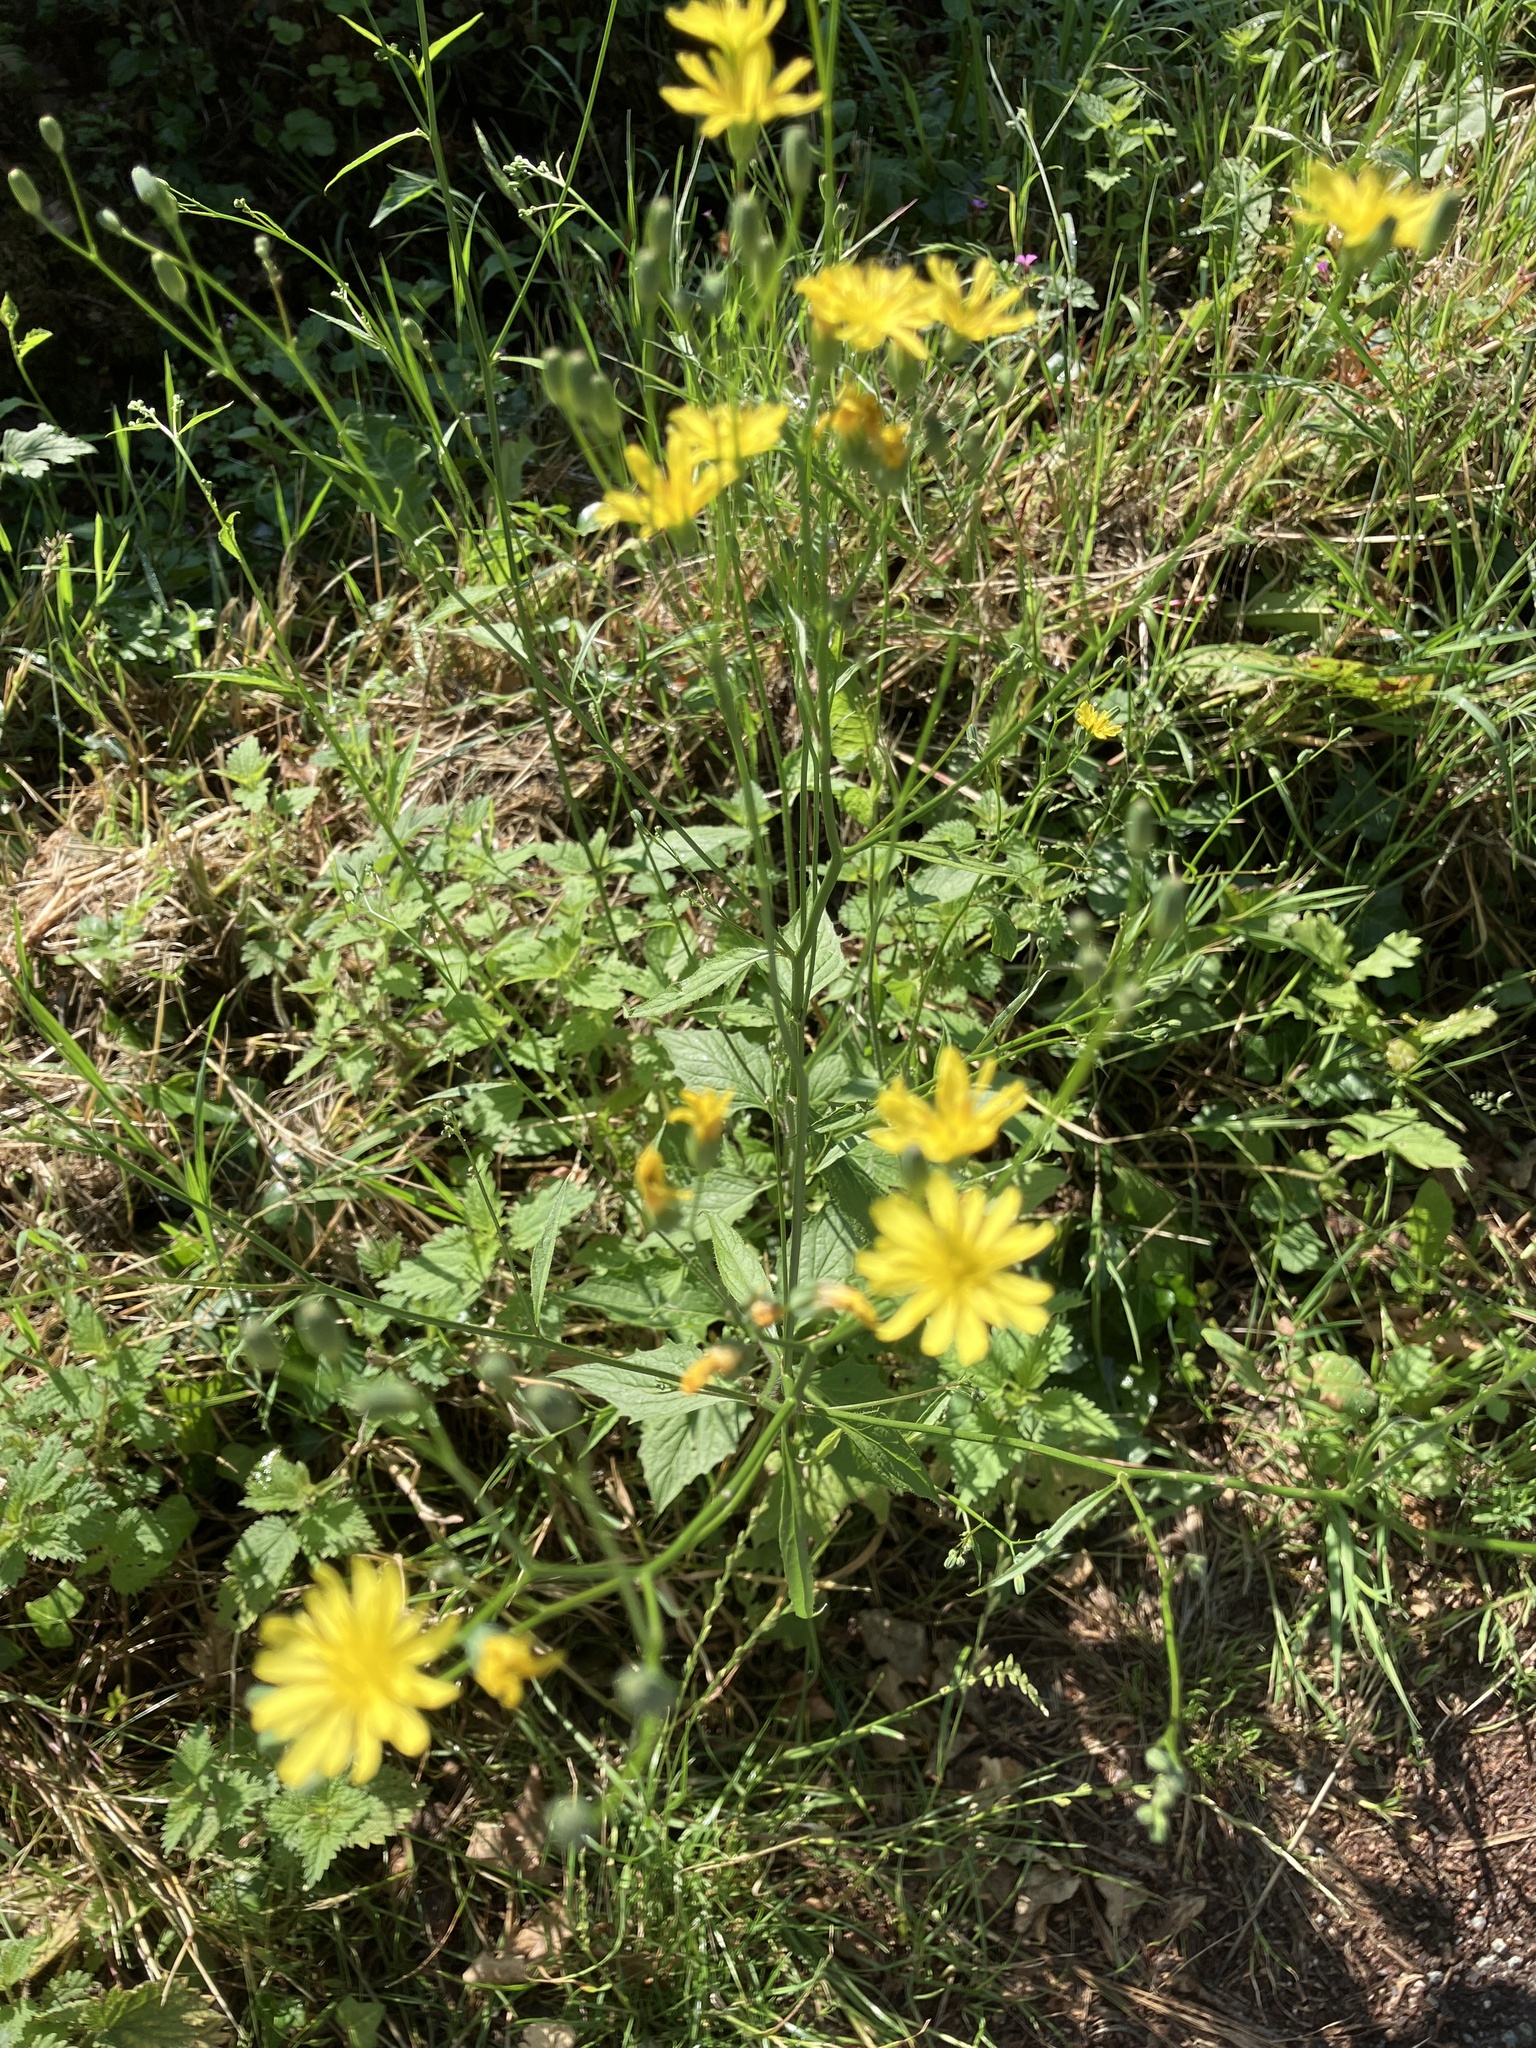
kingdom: Plantae
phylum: Tracheophyta
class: Magnoliopsida
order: Asterales
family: Asteraceae
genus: Lapsana
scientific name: Lapsana communis
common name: Nipplewort
